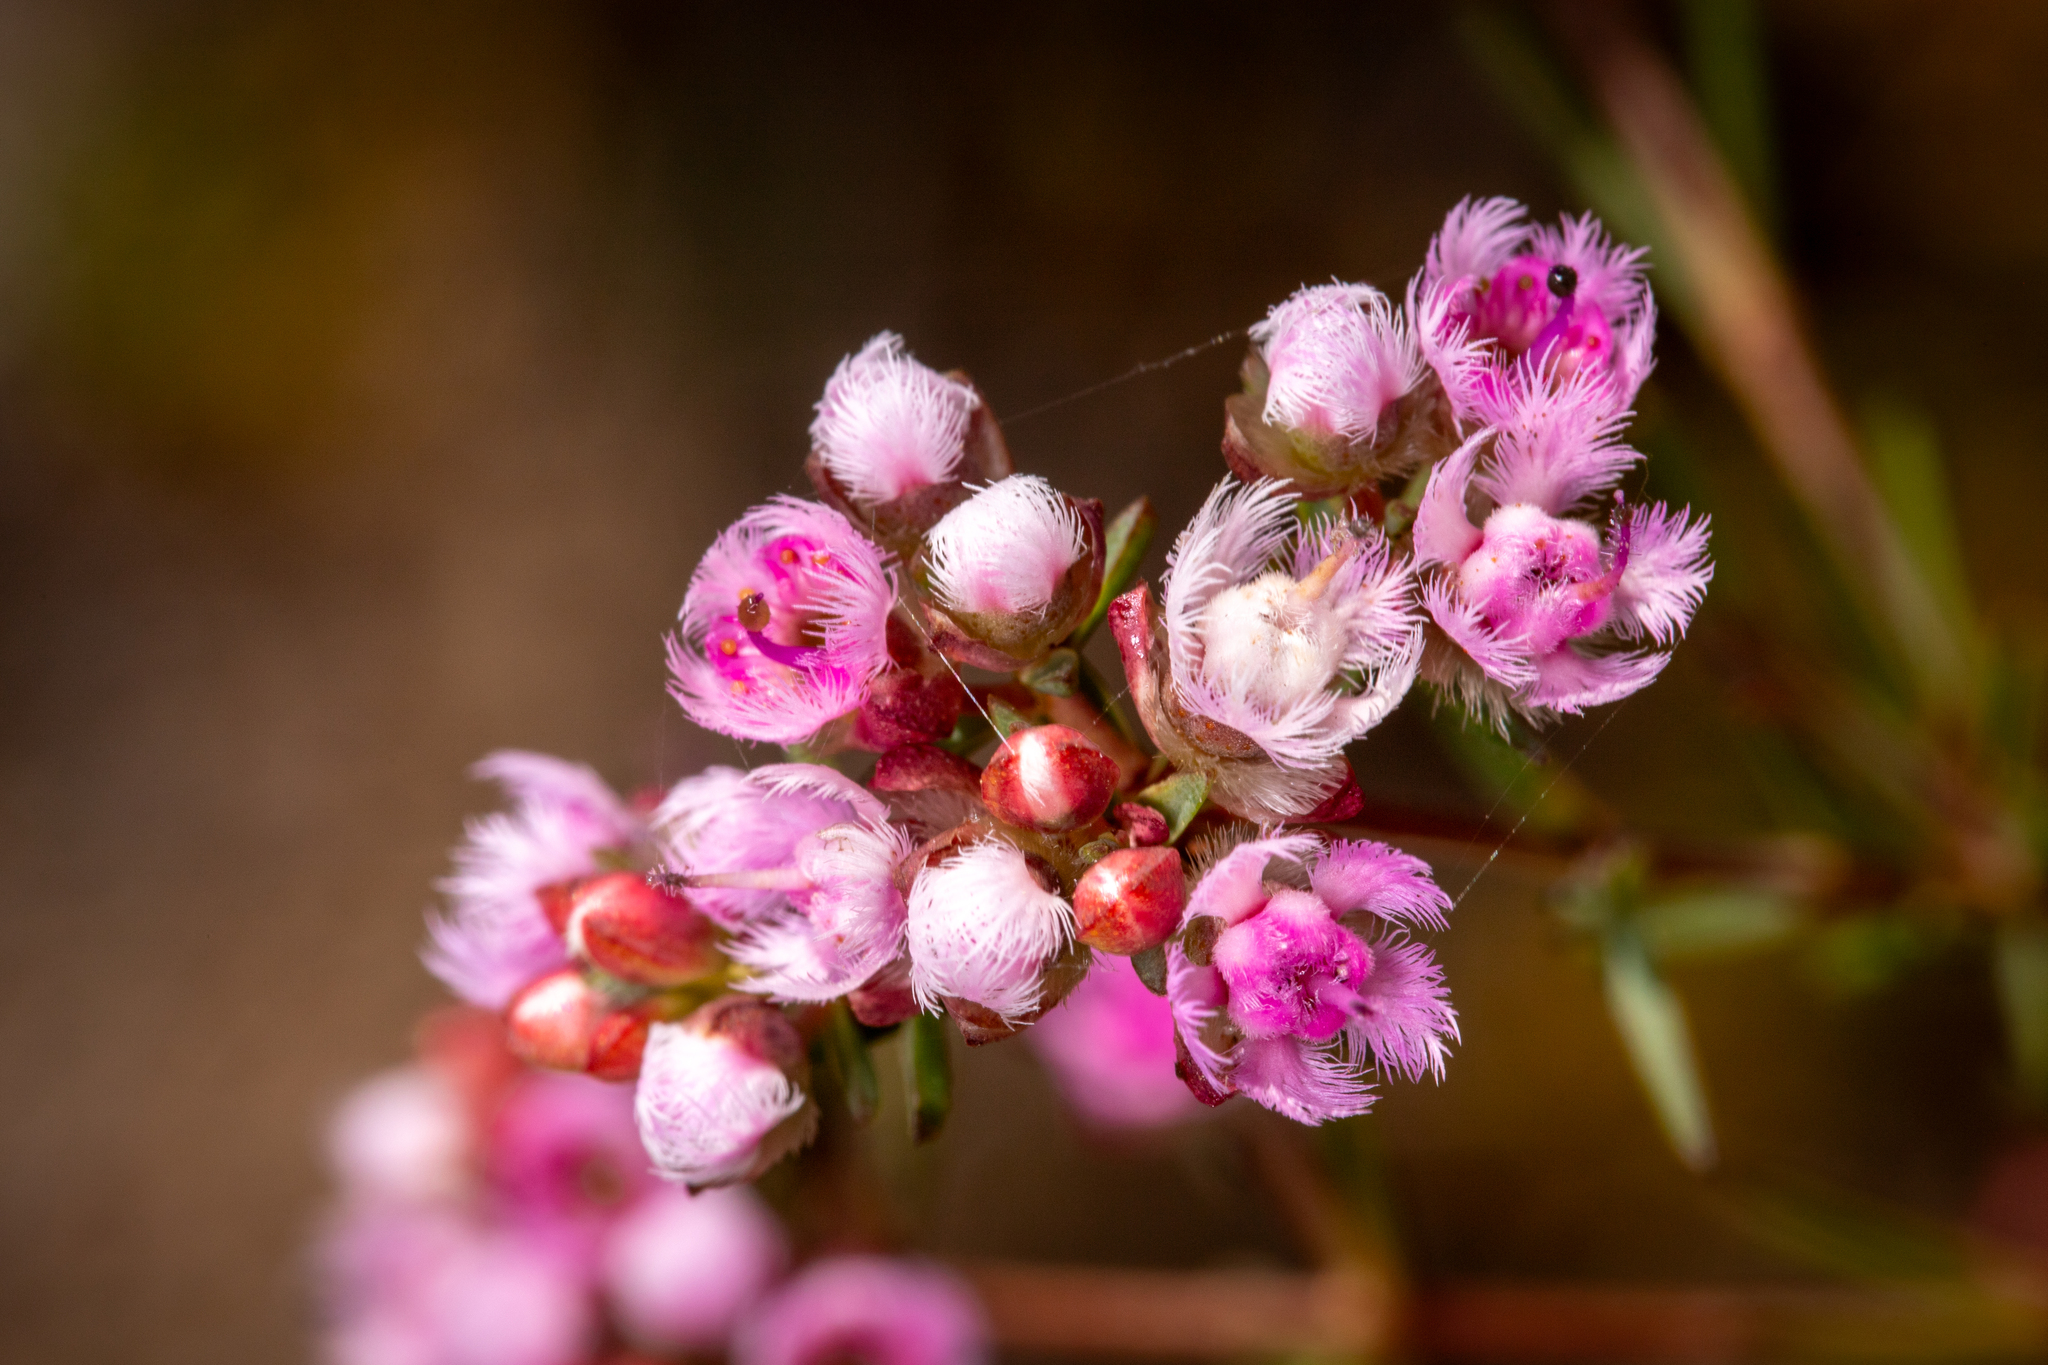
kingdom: Plantae
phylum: Tracheophyta
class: Magnoliopsida
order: Myrtales
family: Myrtaceae
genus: Verticordia
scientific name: Verticordia densiflora
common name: Compact feather-flower
